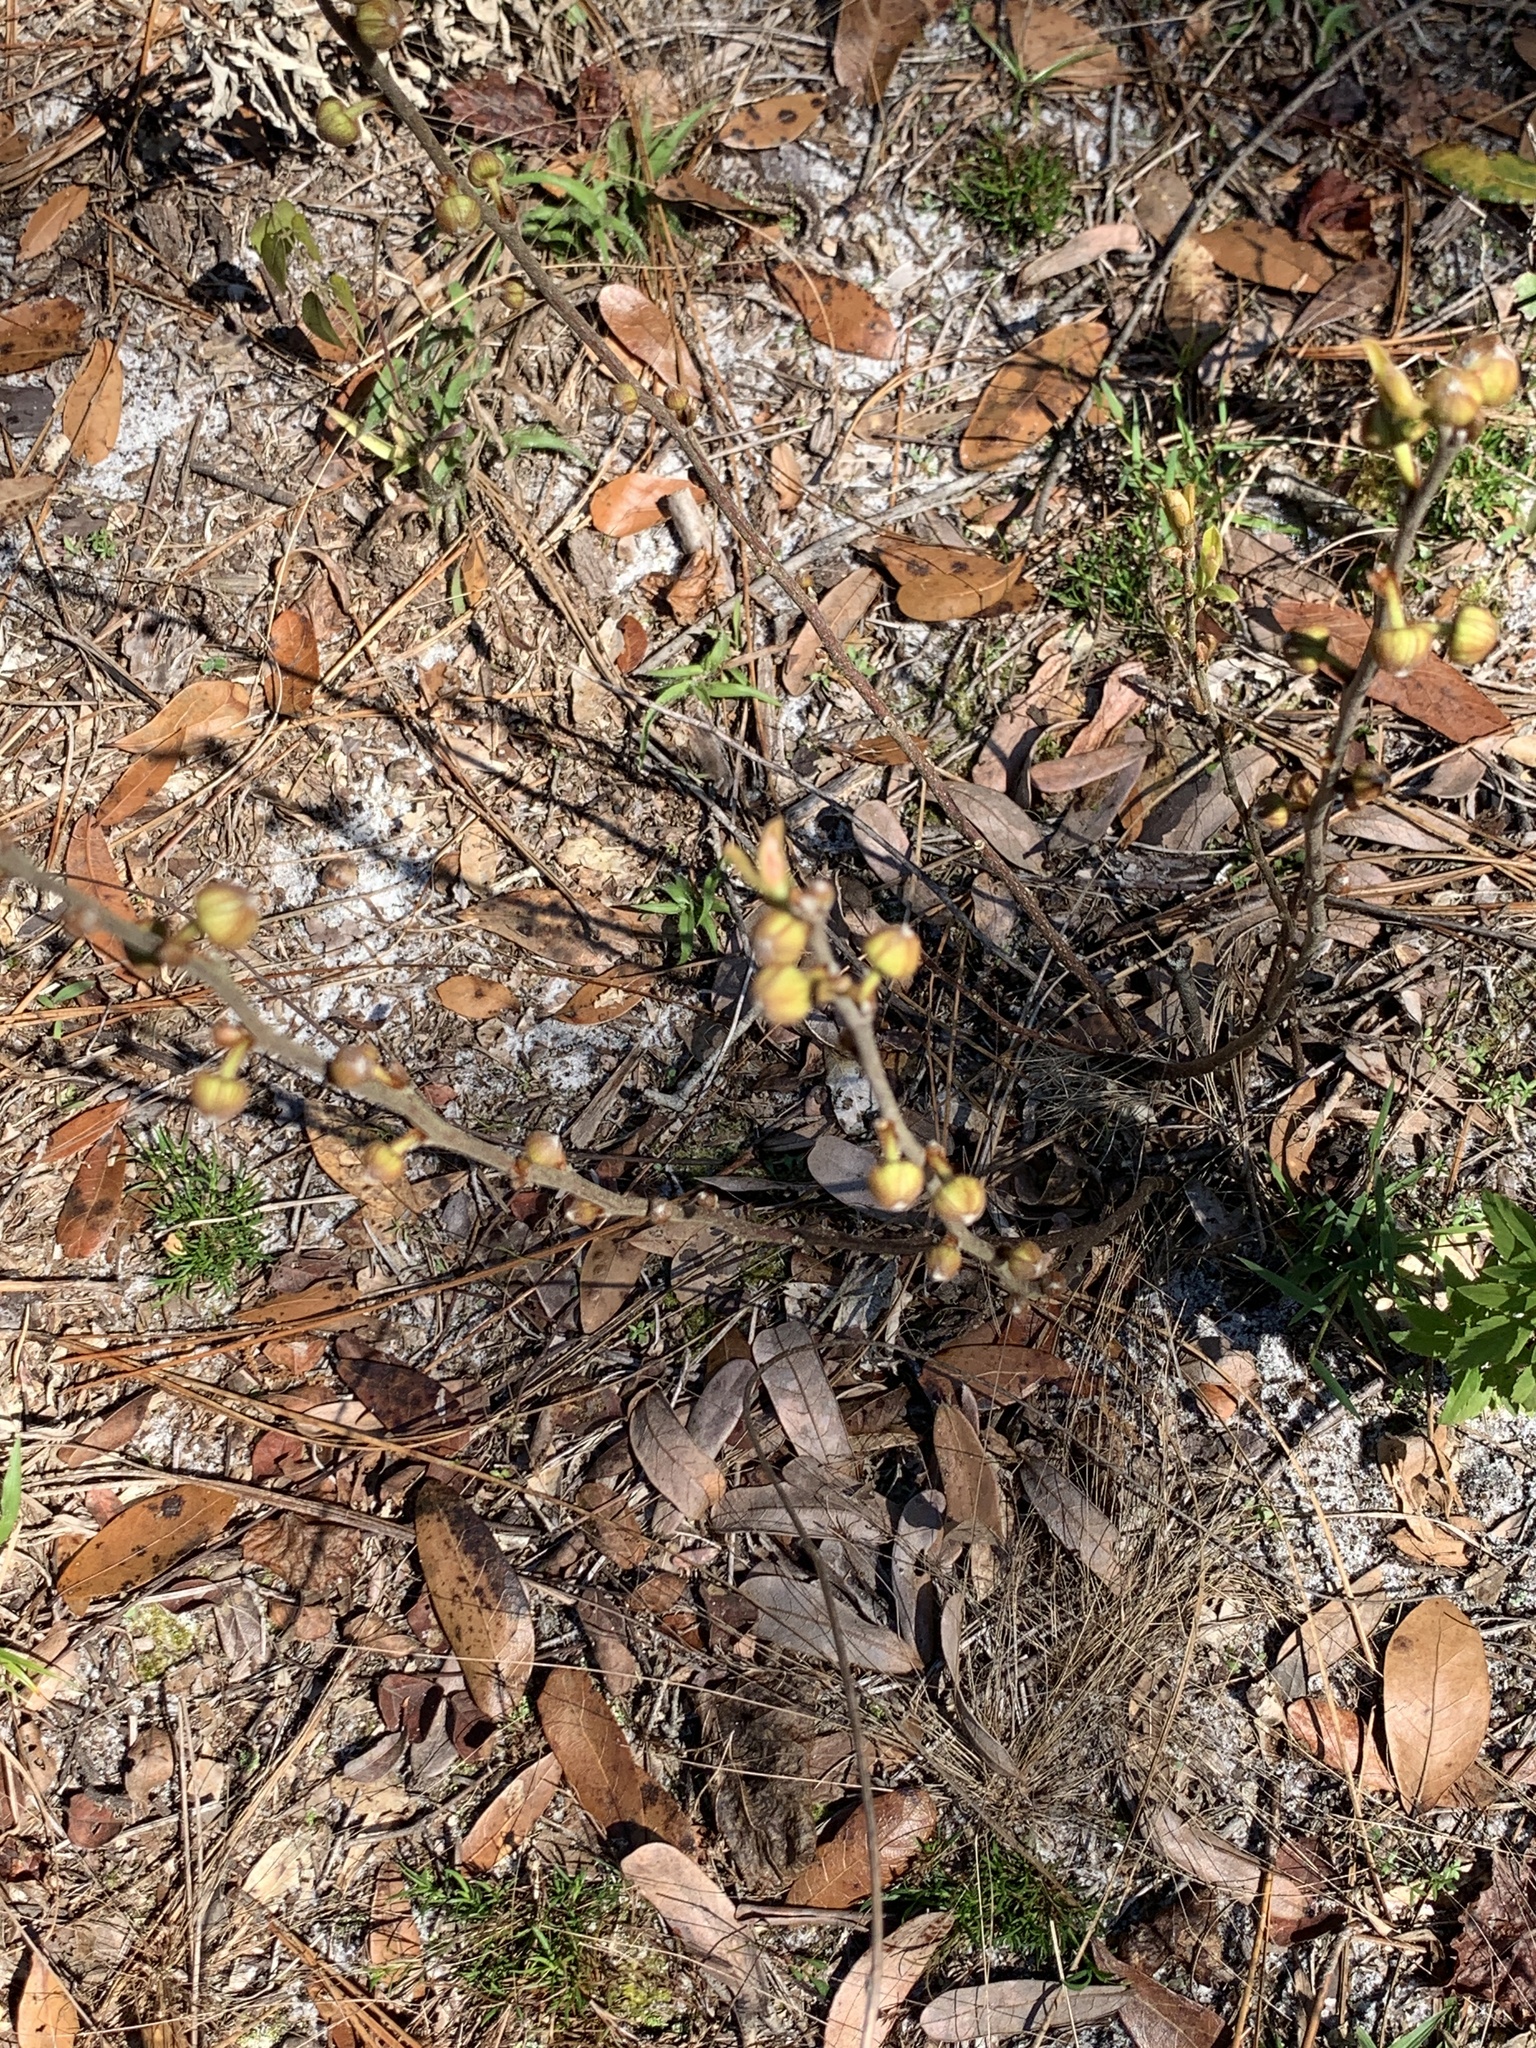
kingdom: Plantae
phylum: Tracheophyta
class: Magnoliopsida
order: Magnoliales
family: Annonaceae
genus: Asimina
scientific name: Asimina reticulata
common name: Flag pawpaw
